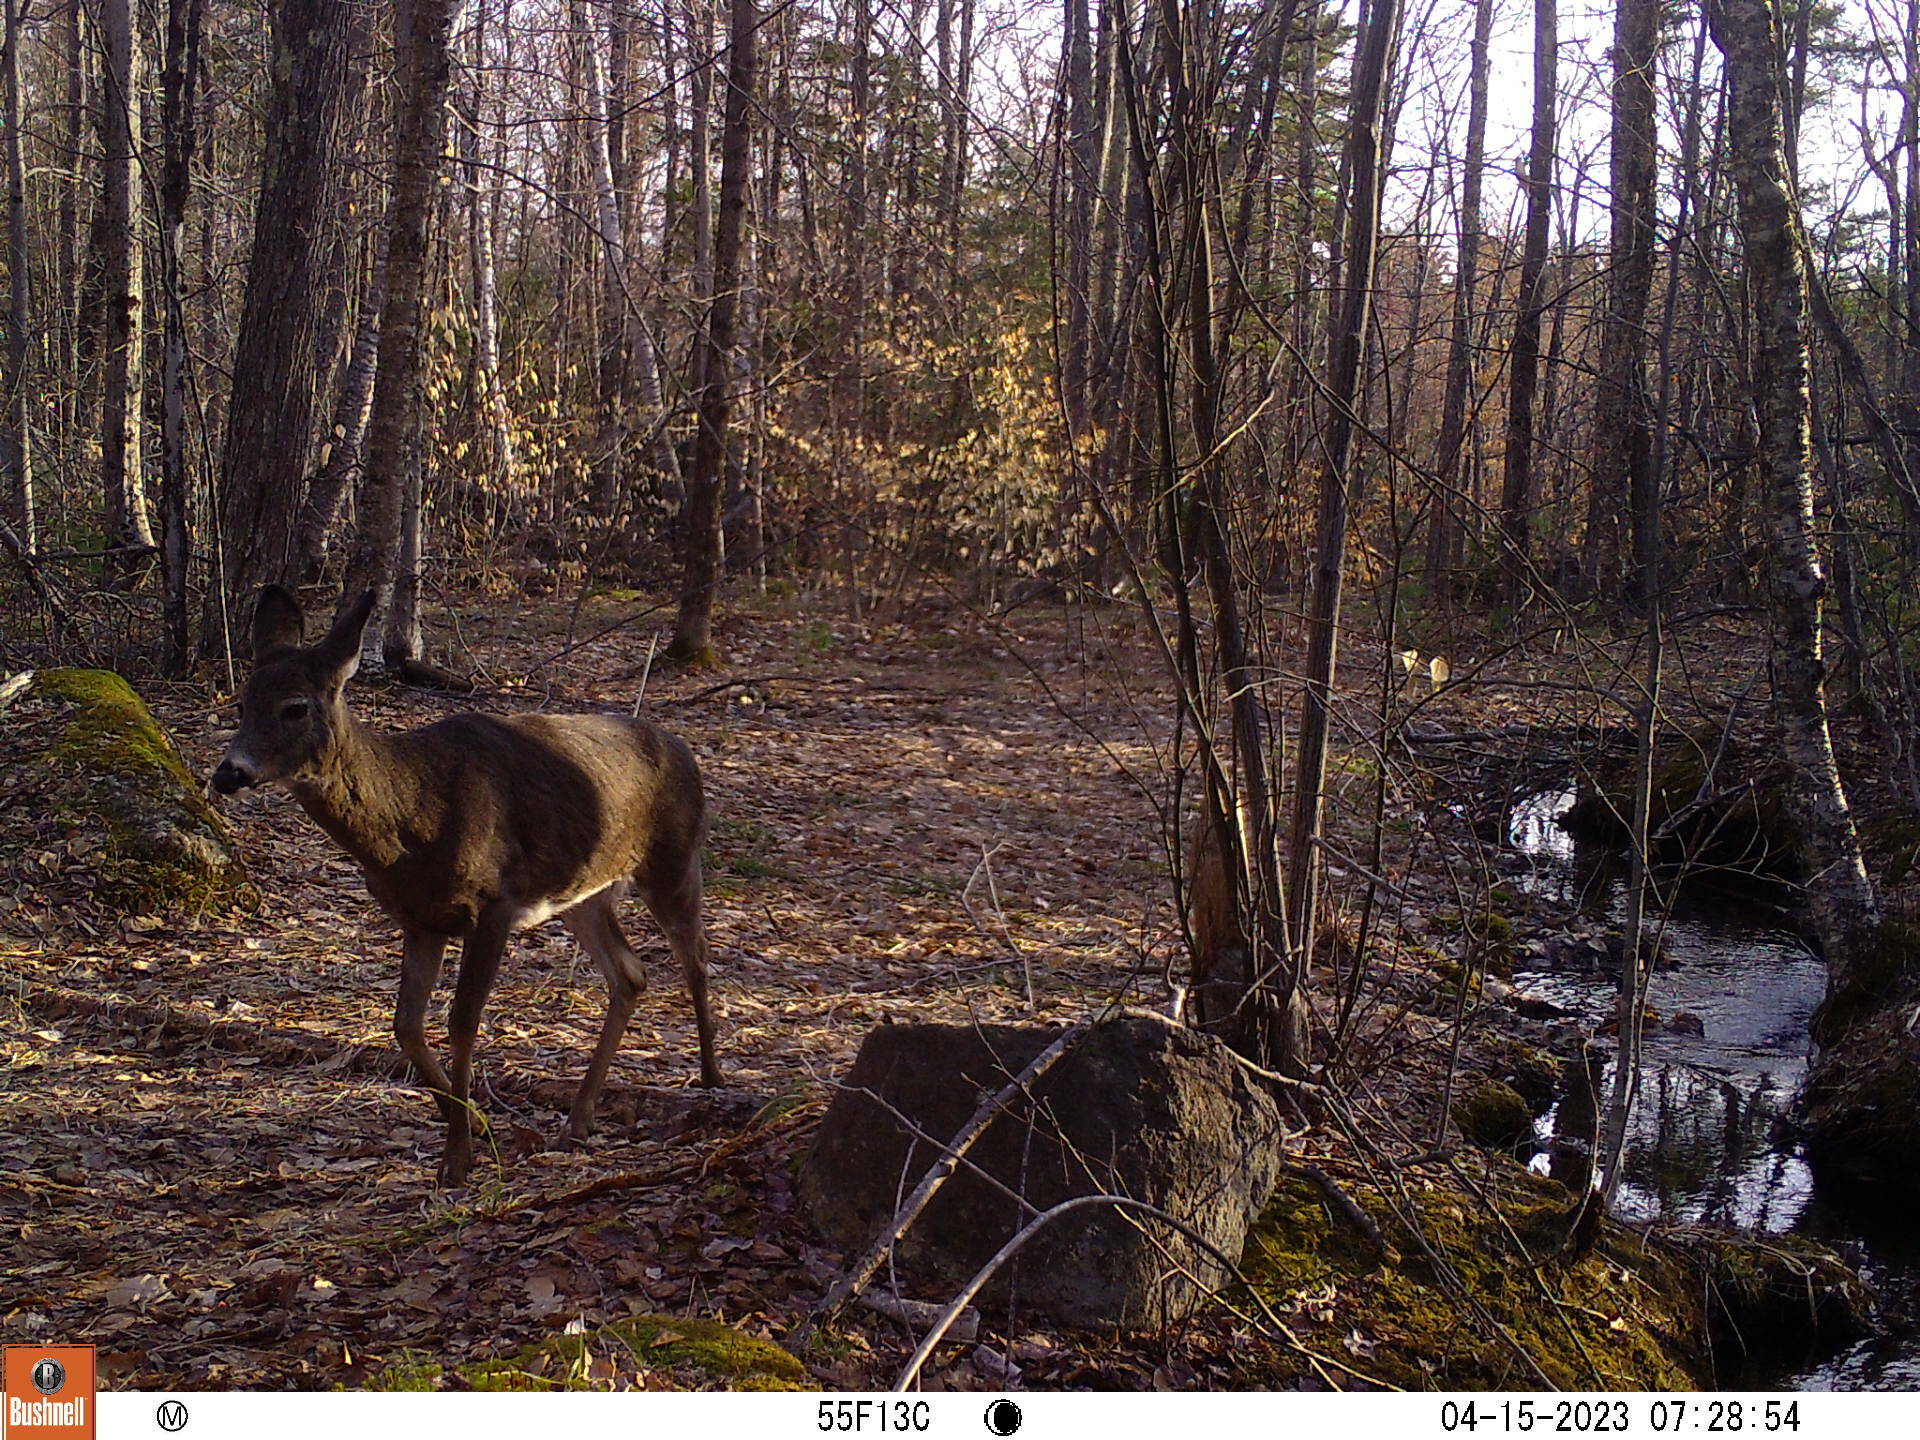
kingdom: Animalia
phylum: Chordata
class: Mammalia
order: Artiodactyla
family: Cervidae
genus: Odocoileus
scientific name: Odocoileus virginianus
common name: White-tailed deer
